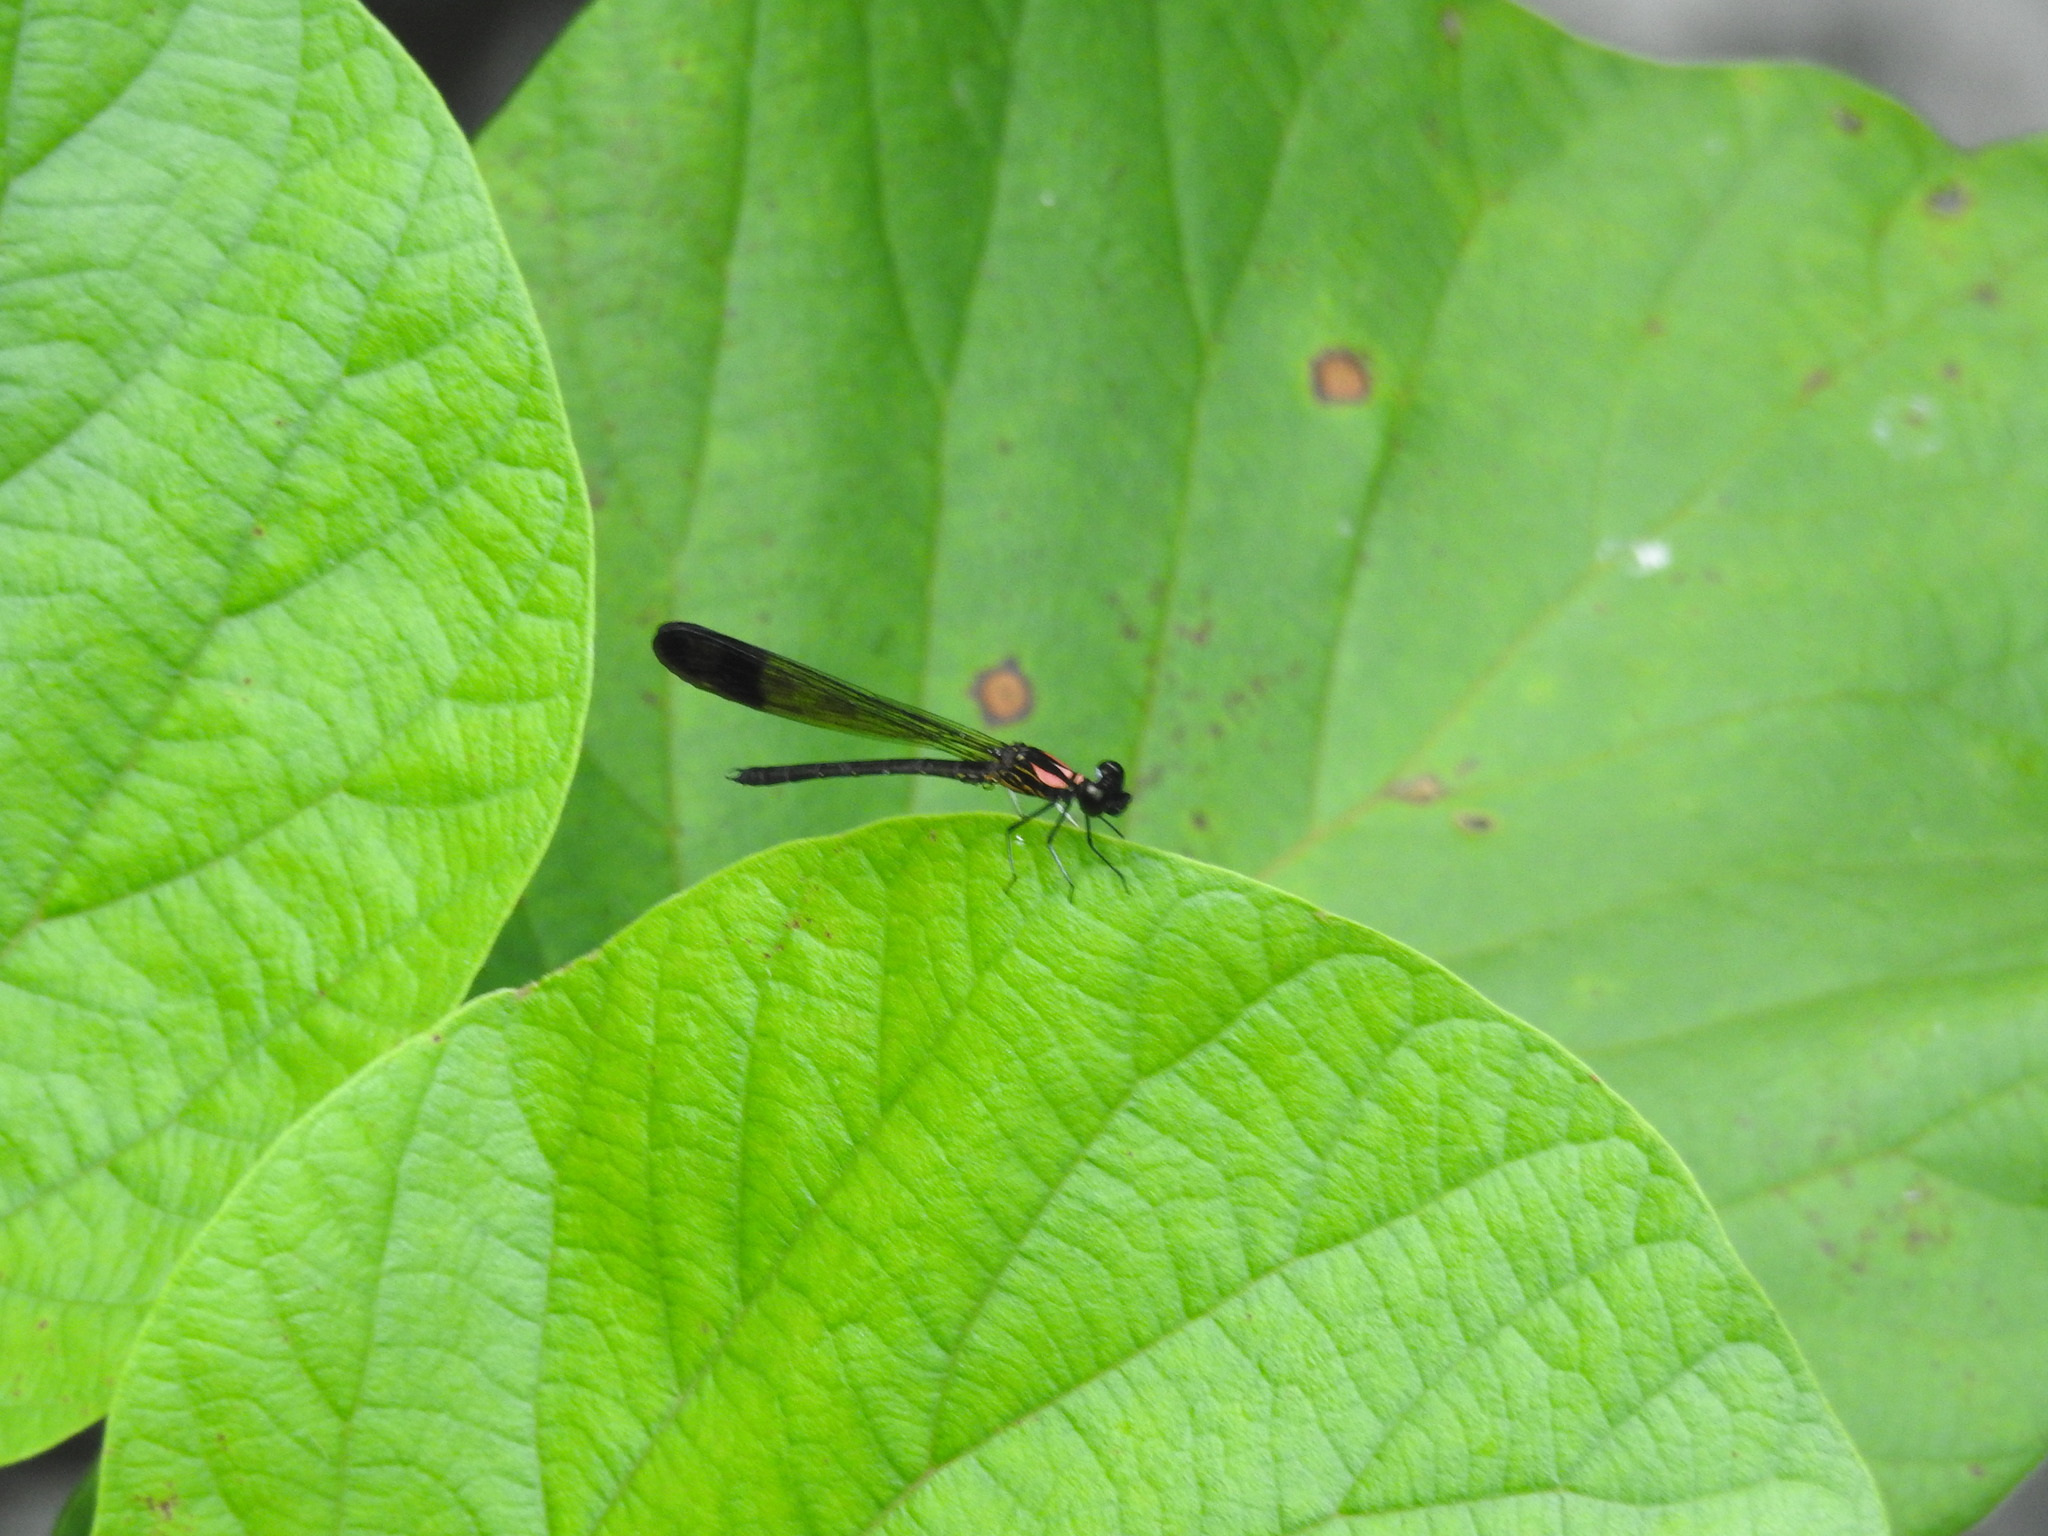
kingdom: Animalia
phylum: Arthropoda
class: Insecta
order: Odonata
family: Chlorocyphidae
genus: Heliocypha
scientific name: Heliocypha bisignata
